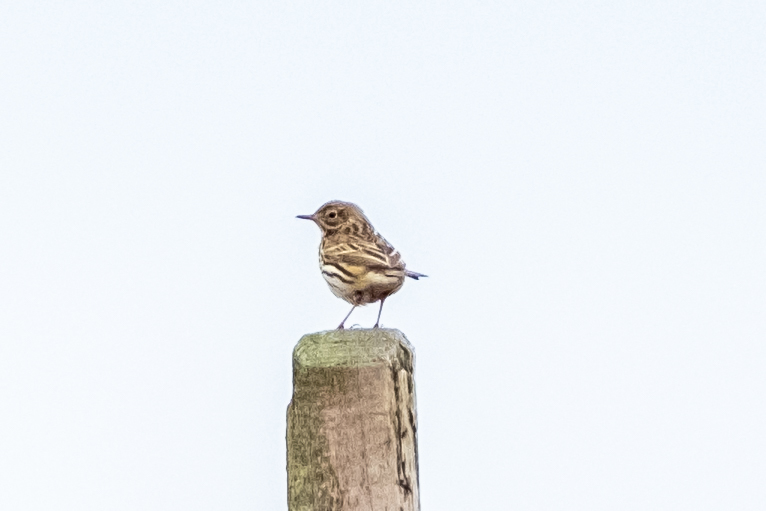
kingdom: Animalia
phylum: Chordata
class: Aves
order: Passeriformes
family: Motacillidae
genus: Anthus
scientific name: Anthus pratensis
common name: Meadow pipit
